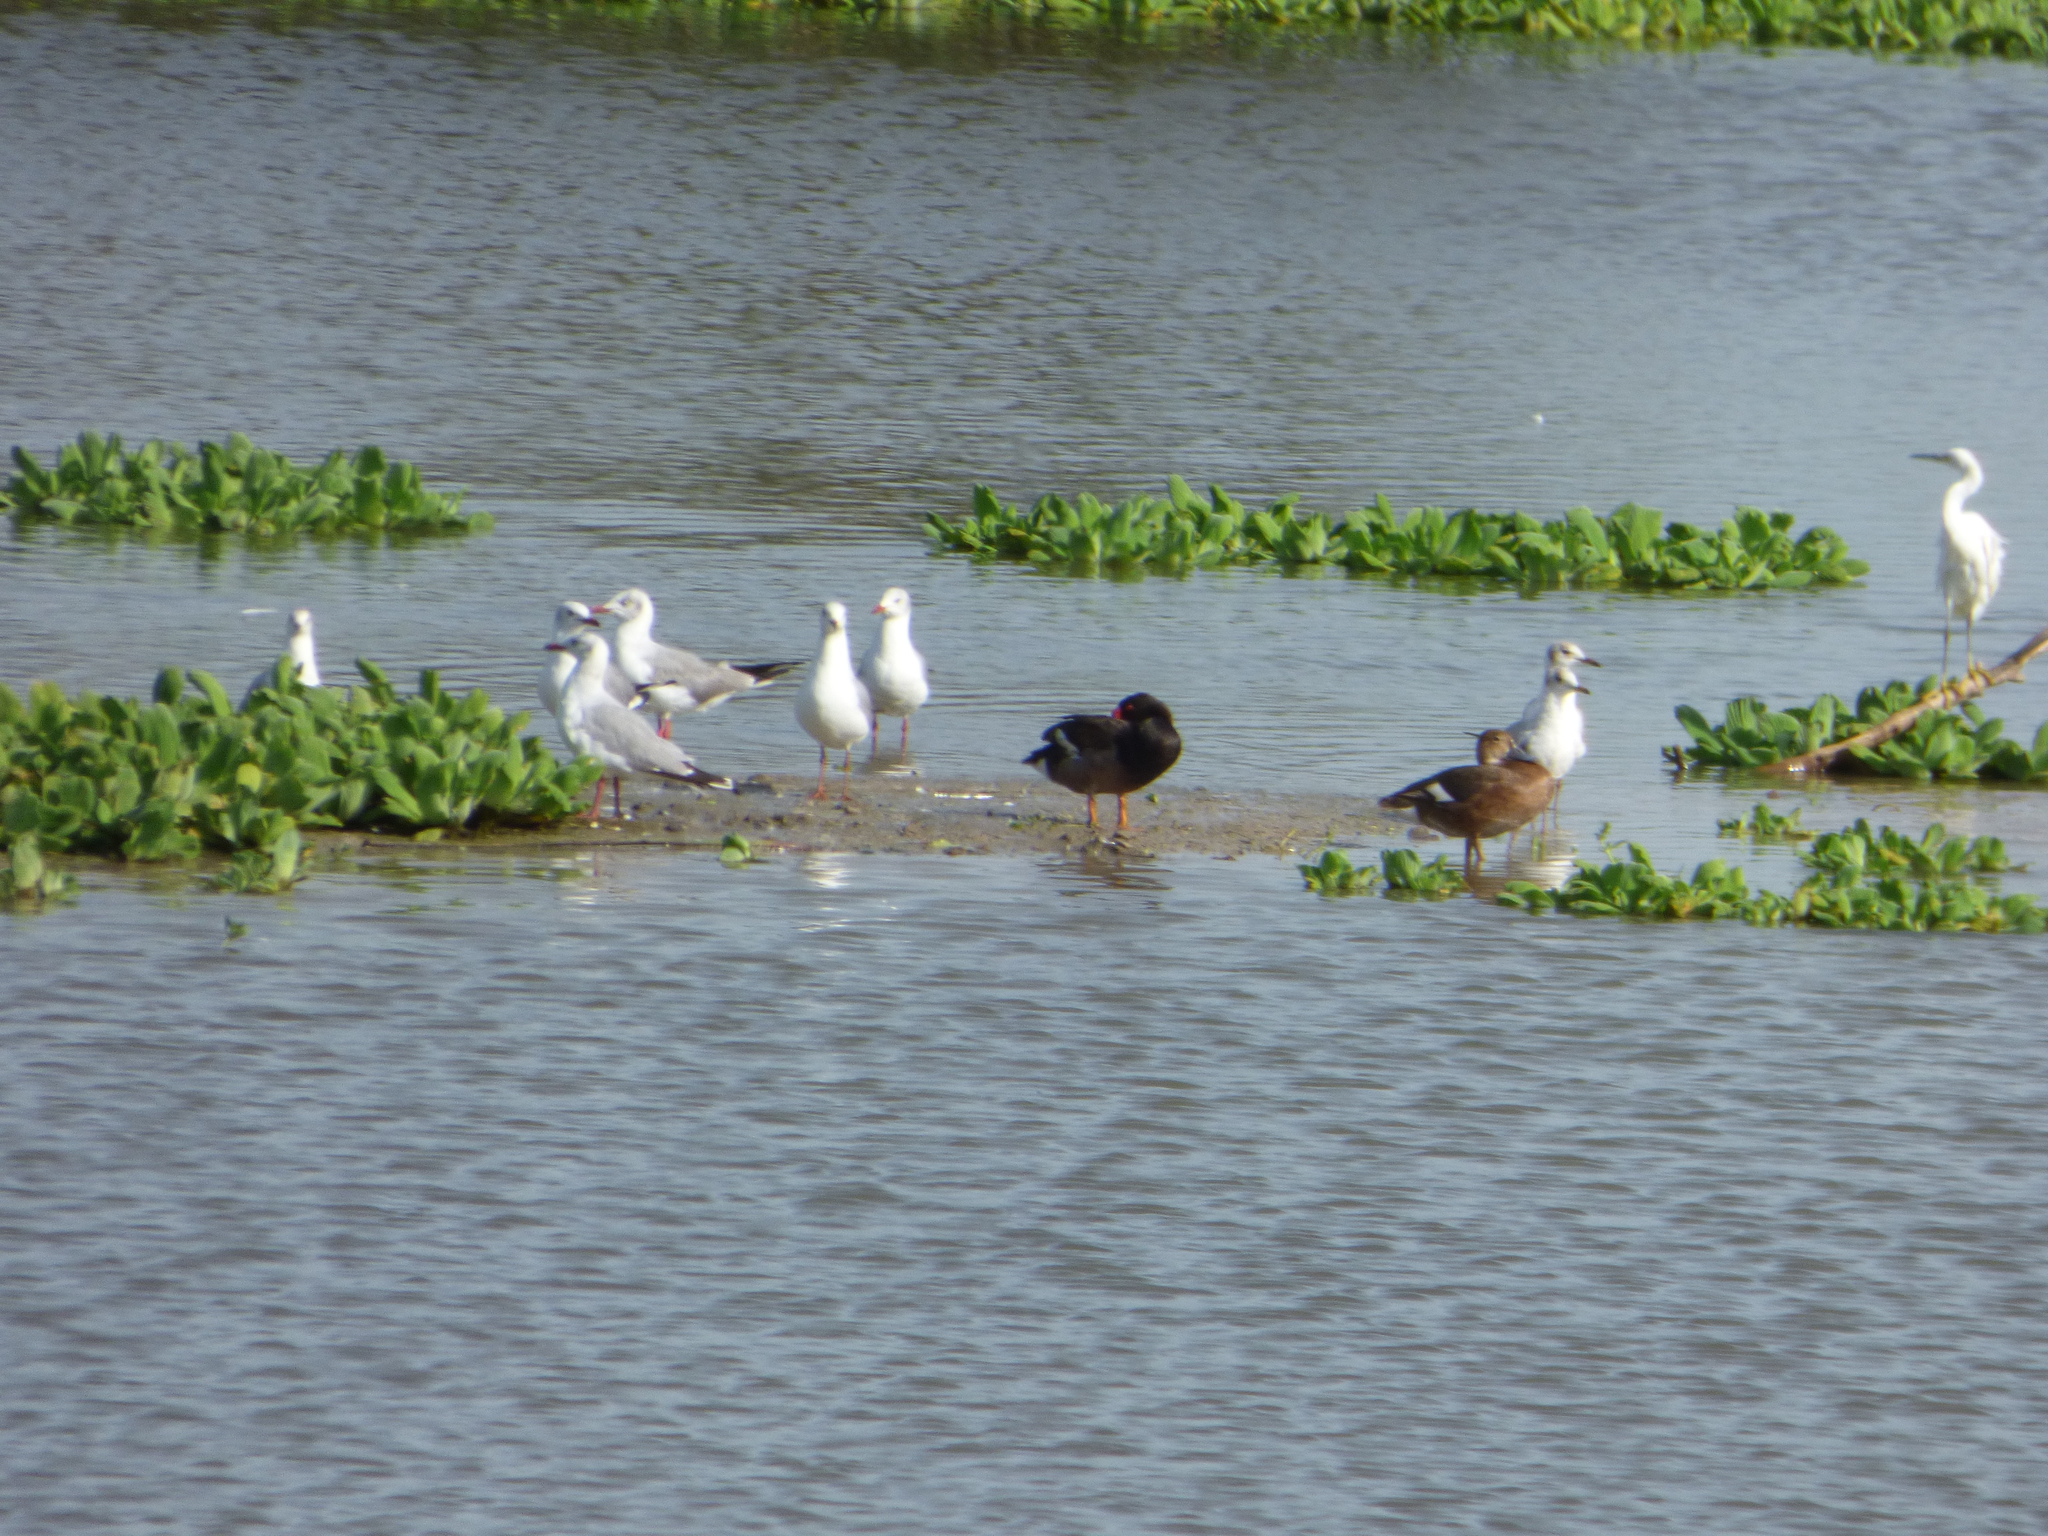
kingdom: Animalia
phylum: Chordata
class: Aves
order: Charadriiformes
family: Laridae
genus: Chroicocephalus
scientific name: Chroicocephalus cirrocephalus
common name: Grey-headed gull
